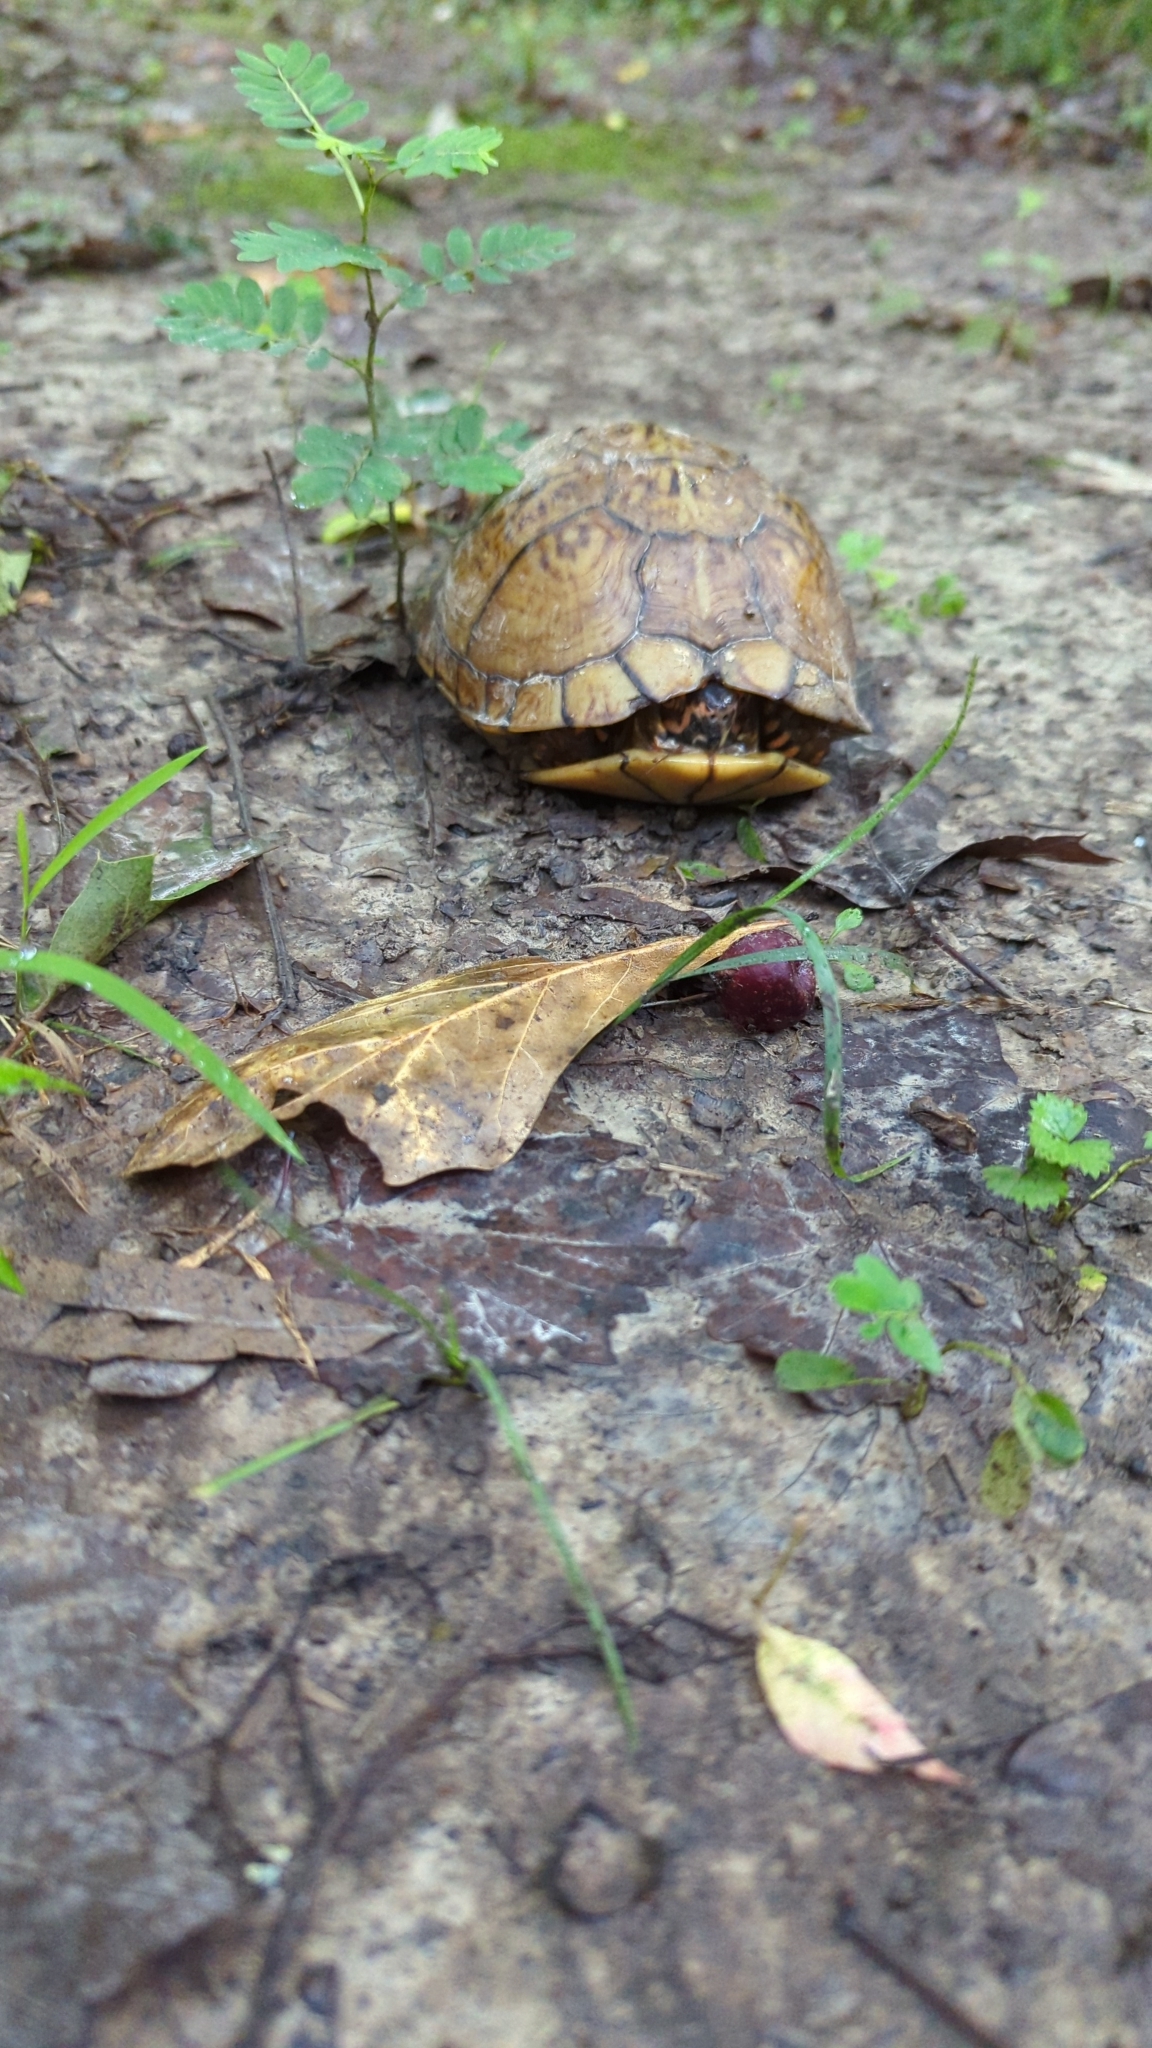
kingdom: Animalia
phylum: Chordata
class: Testudines
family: Emydidae
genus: Terrapene
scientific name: Terrapene carolina
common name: Common box turtle
